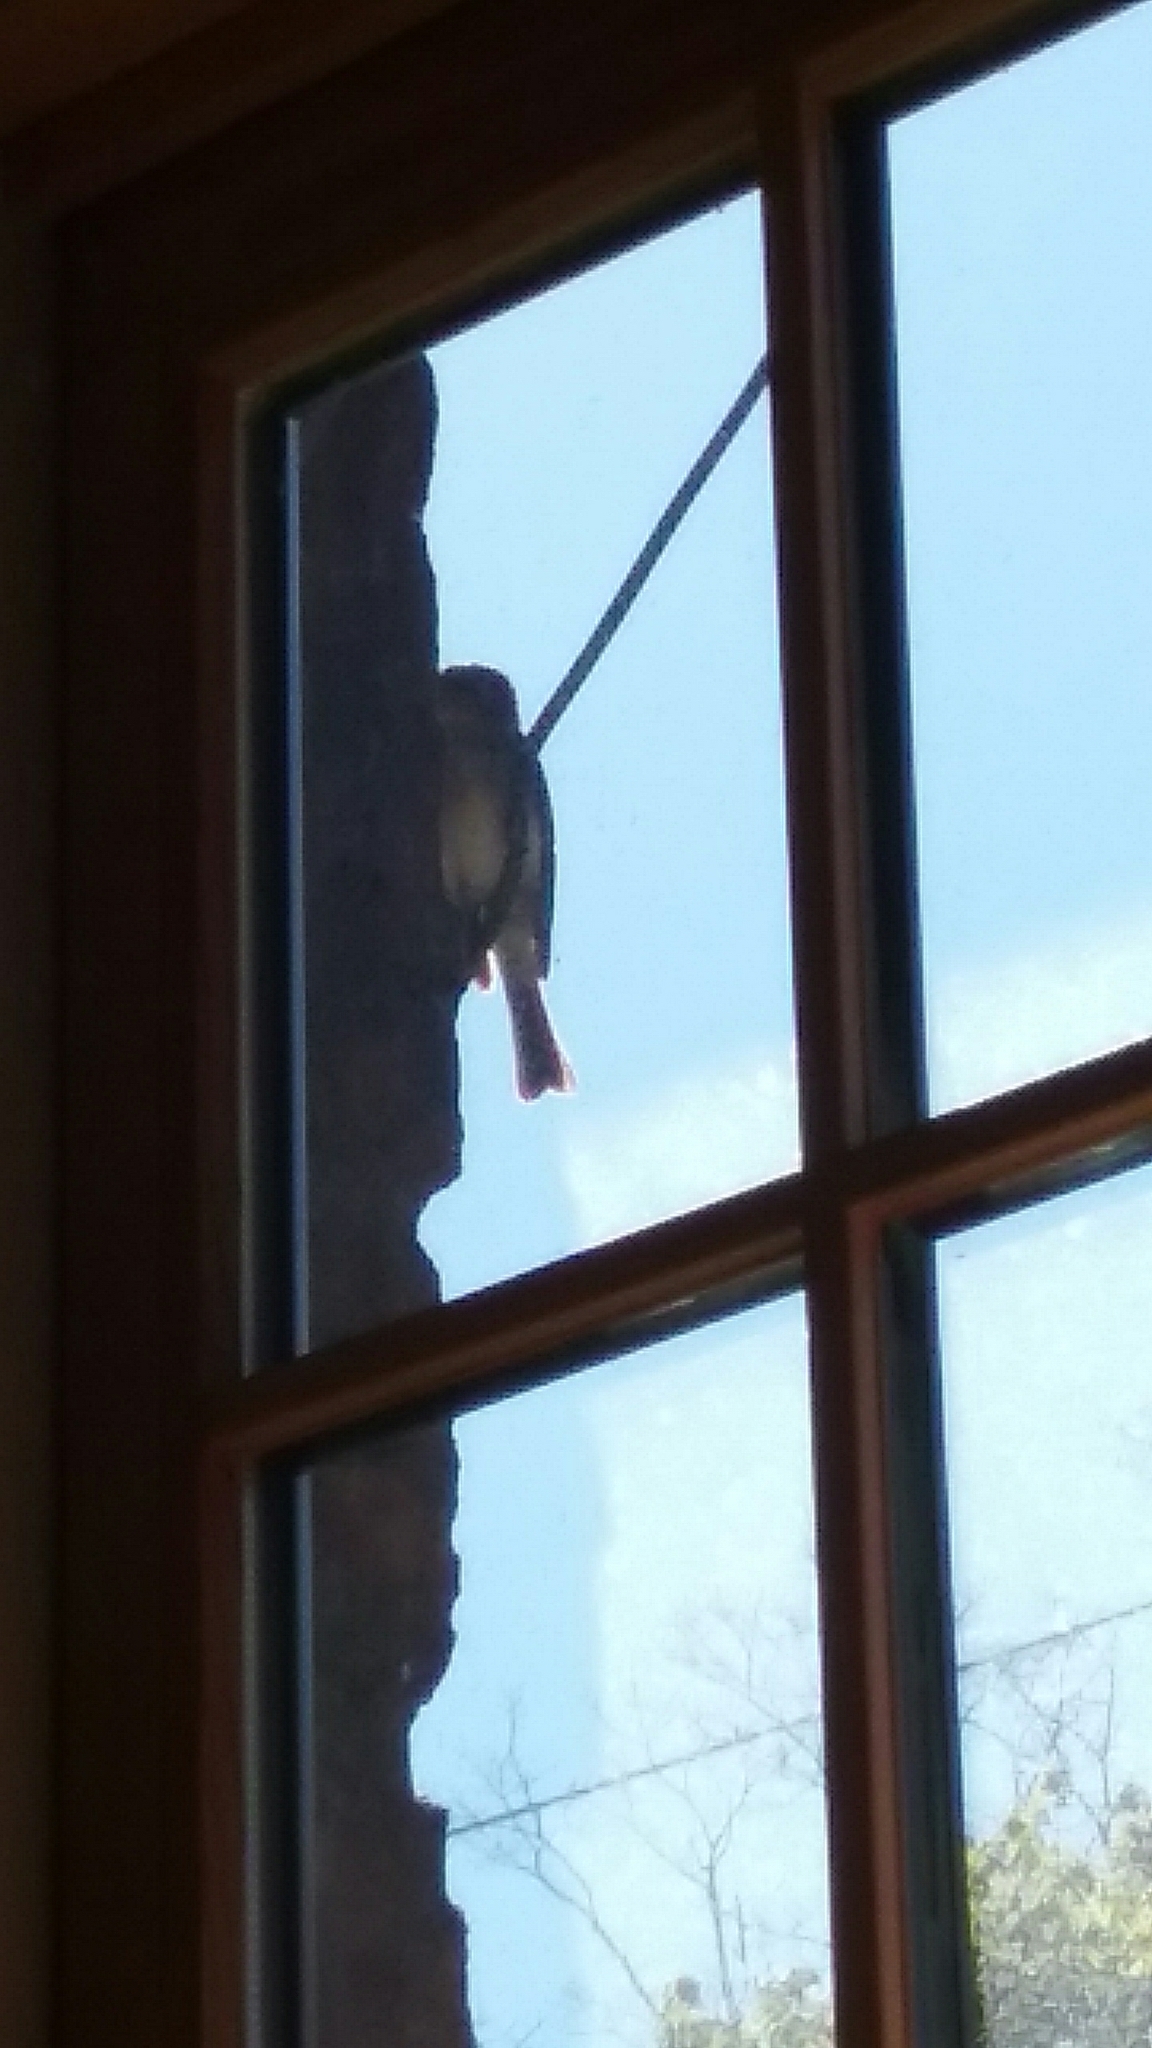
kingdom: Animalia
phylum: Chordata
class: Aves
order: Passeriformes
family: Tyrannidae
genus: Sayornis
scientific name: Sayornis phoebe
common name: Eastern phoebe
